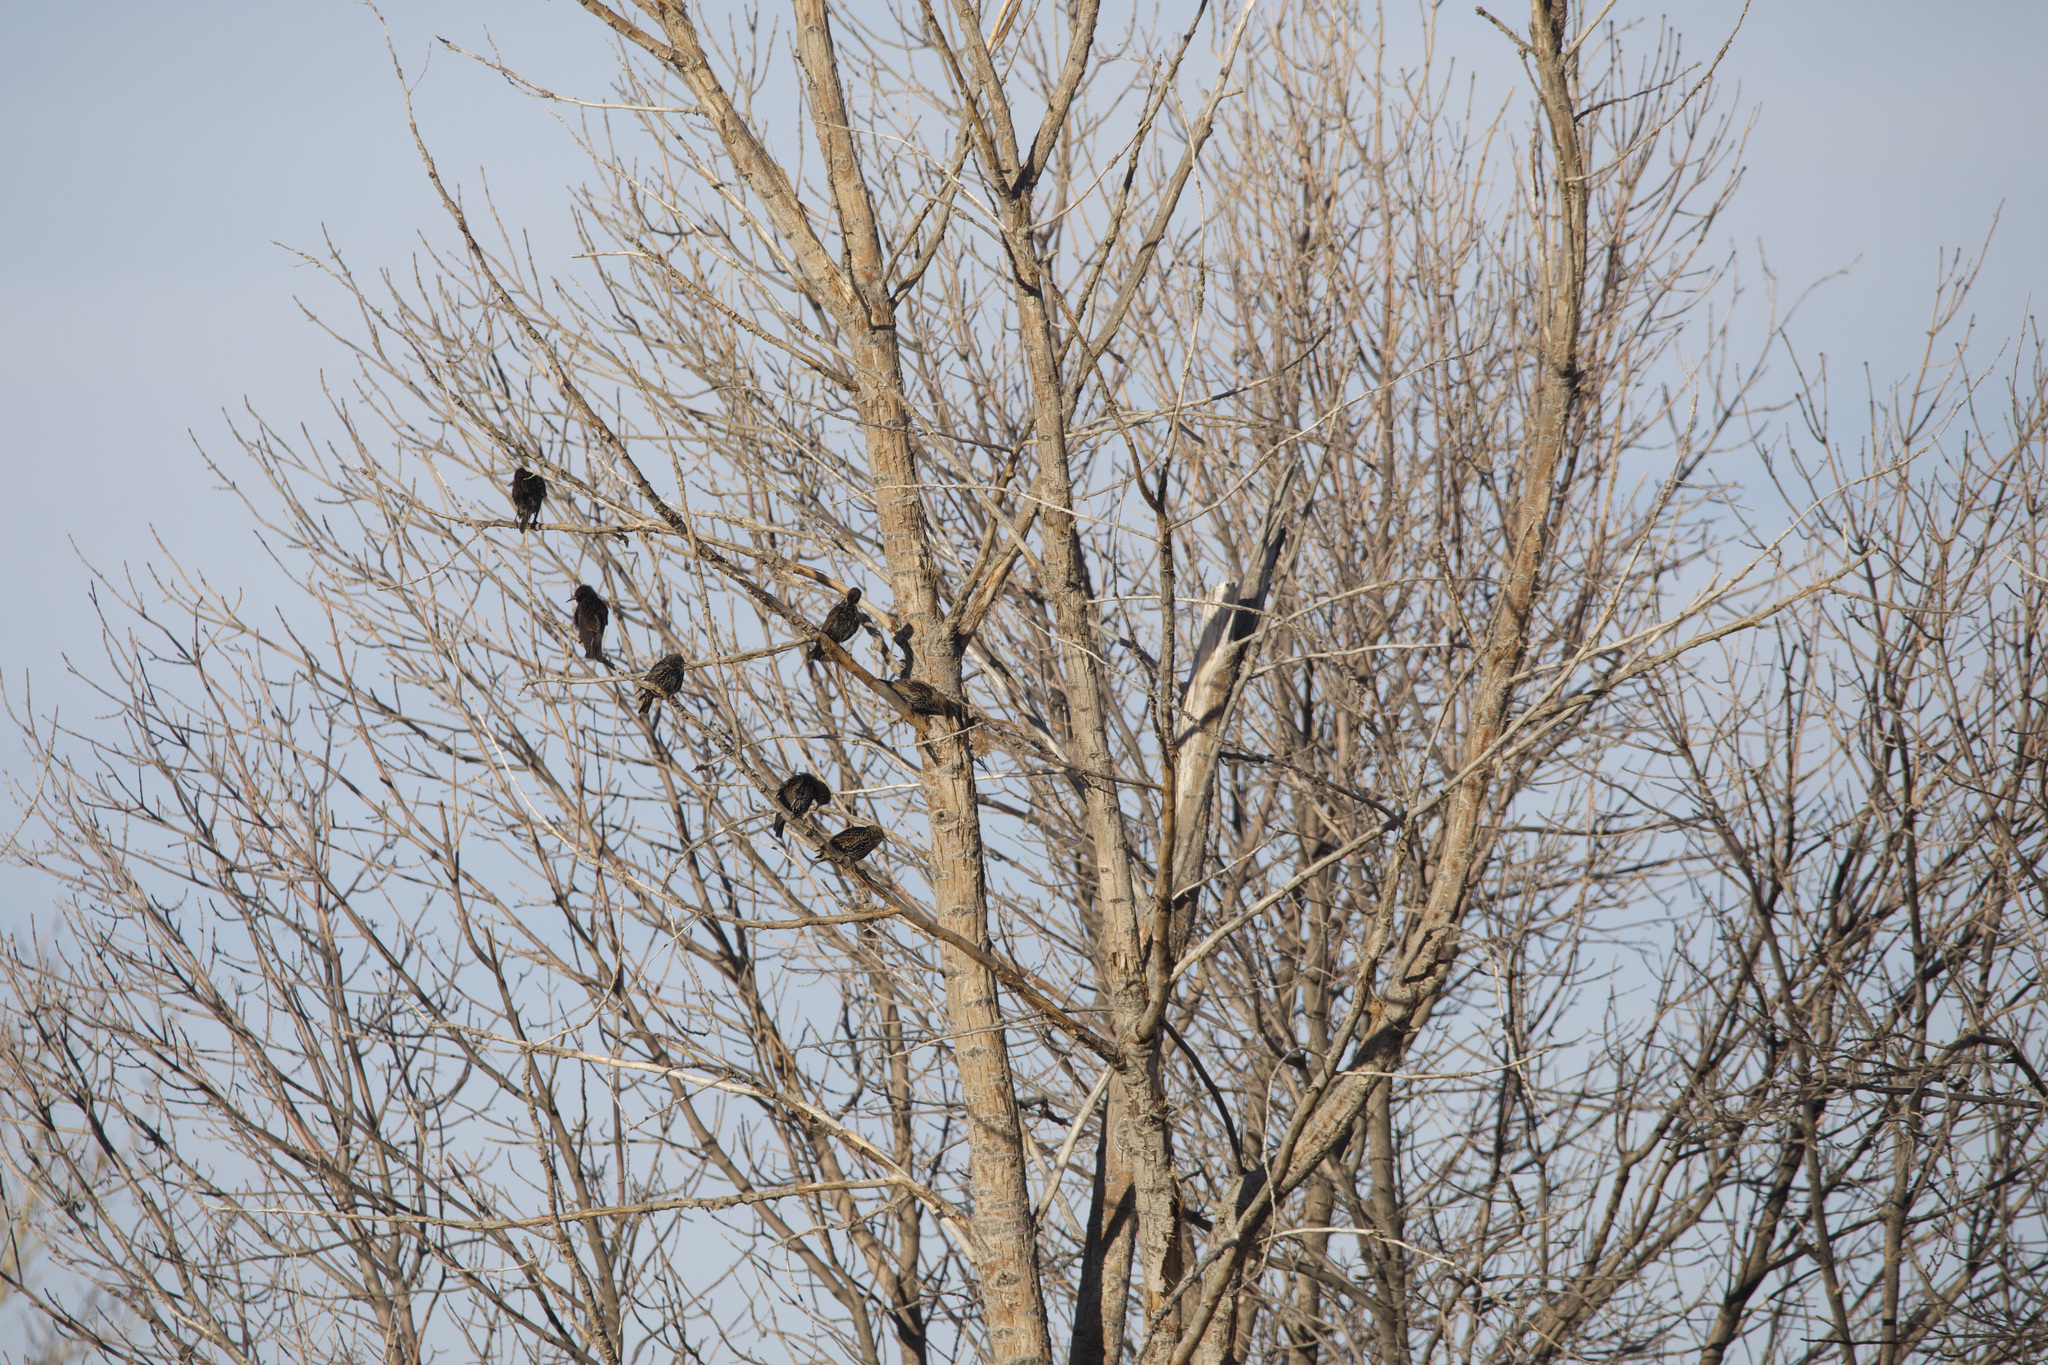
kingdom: Animalia
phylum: Chordata
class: Aves
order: Passeriformes
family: Sturnidae
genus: Sturnus
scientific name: Sturnus vulgaris
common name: Common starling
